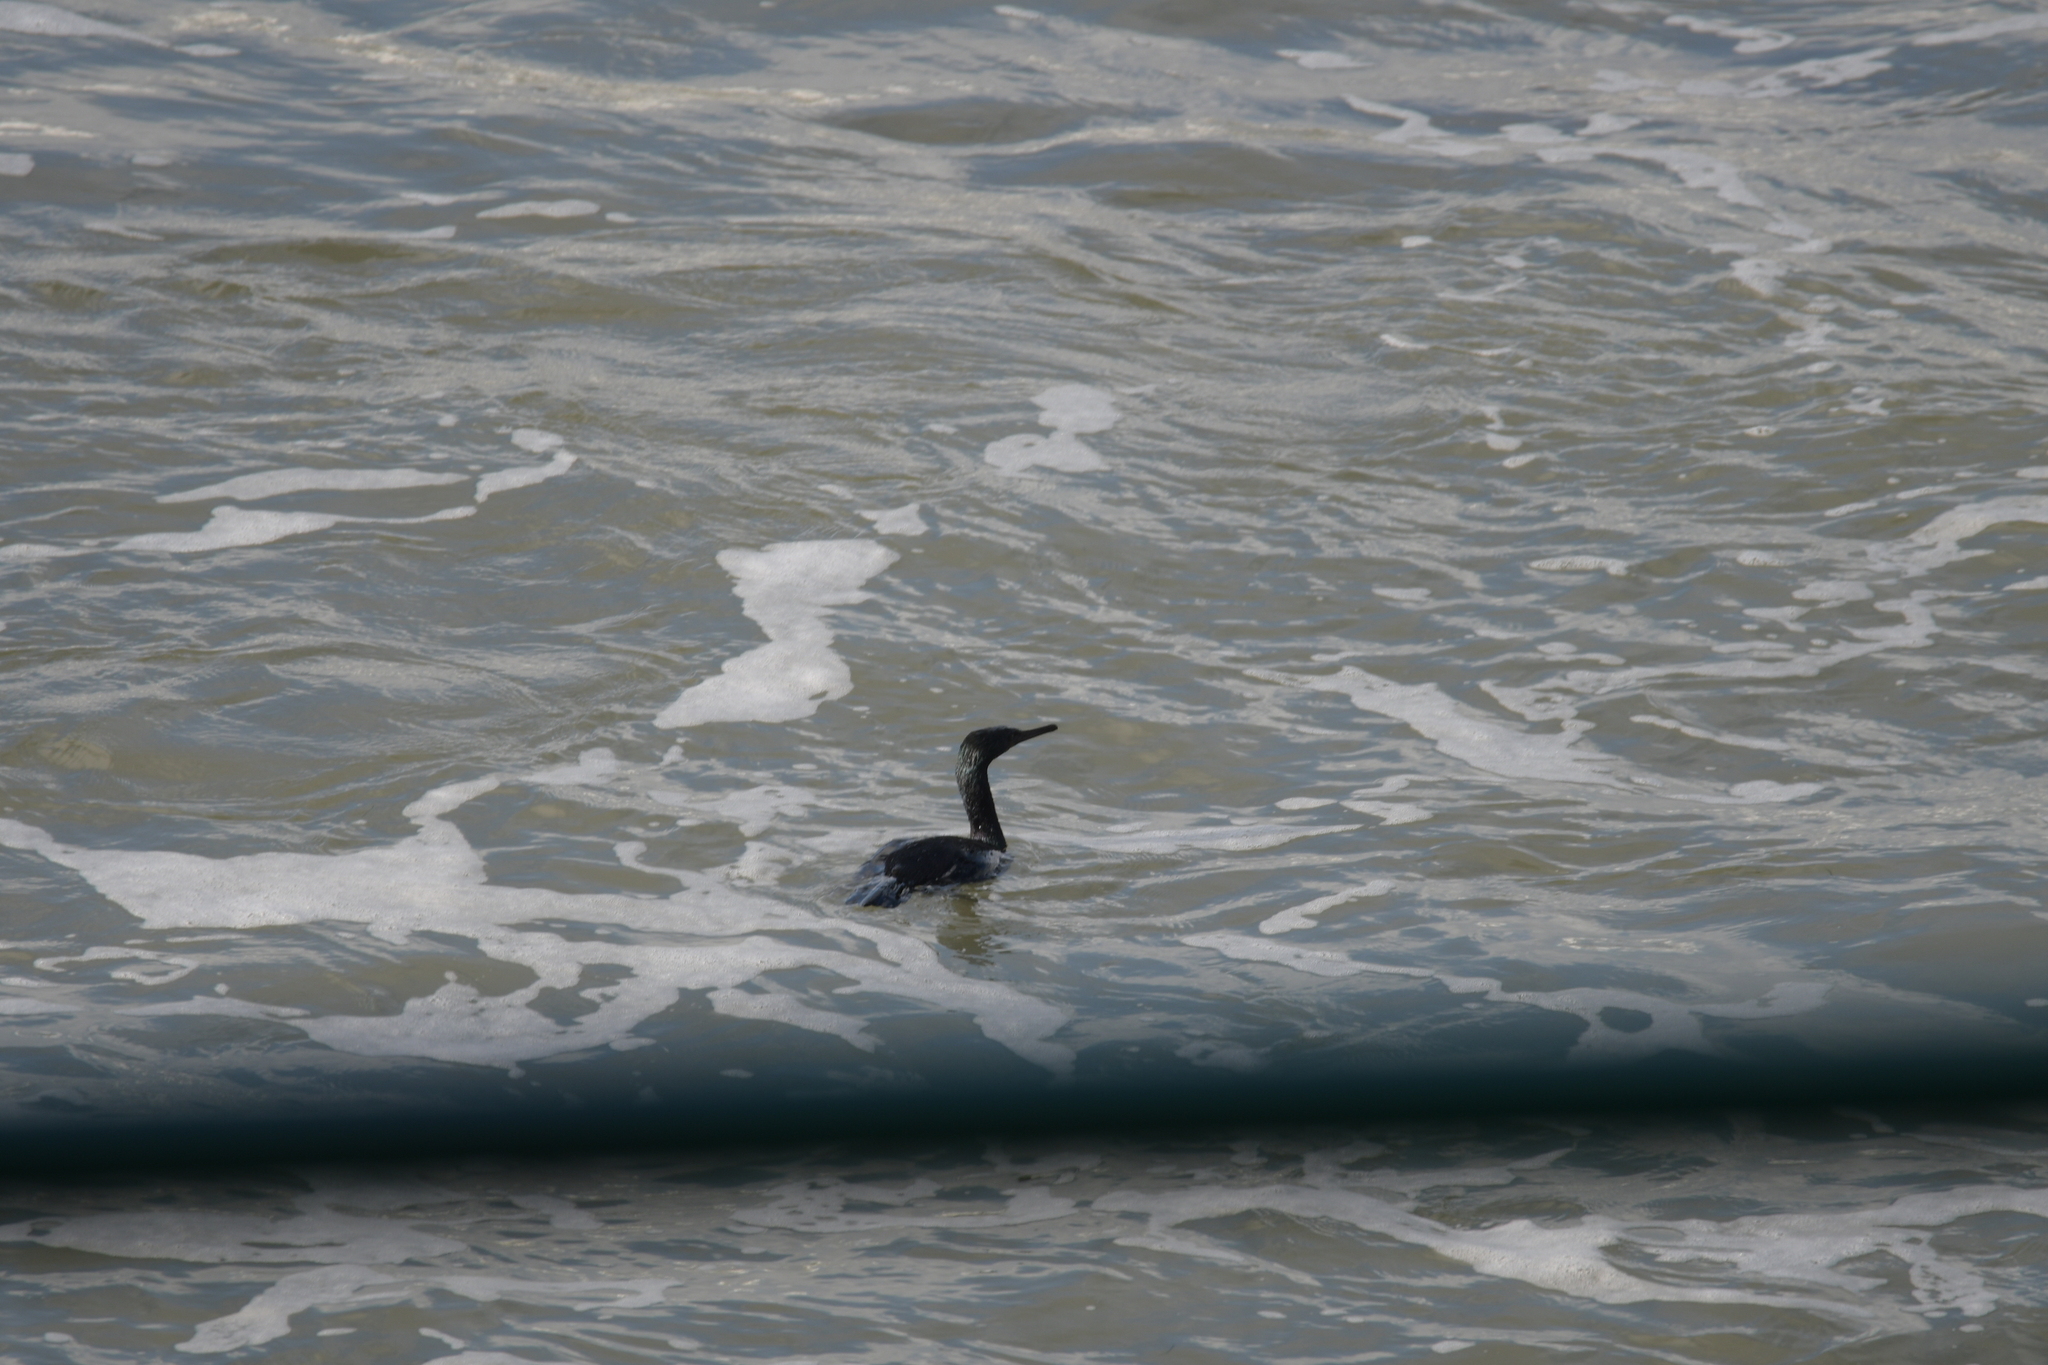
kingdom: Animalia
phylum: Chordata
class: Aves
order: Suliformes
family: Phalacrocoracidae
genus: Phalacrocorax
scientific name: Phalacrocorax pelagicus
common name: Pelagic cormorant
